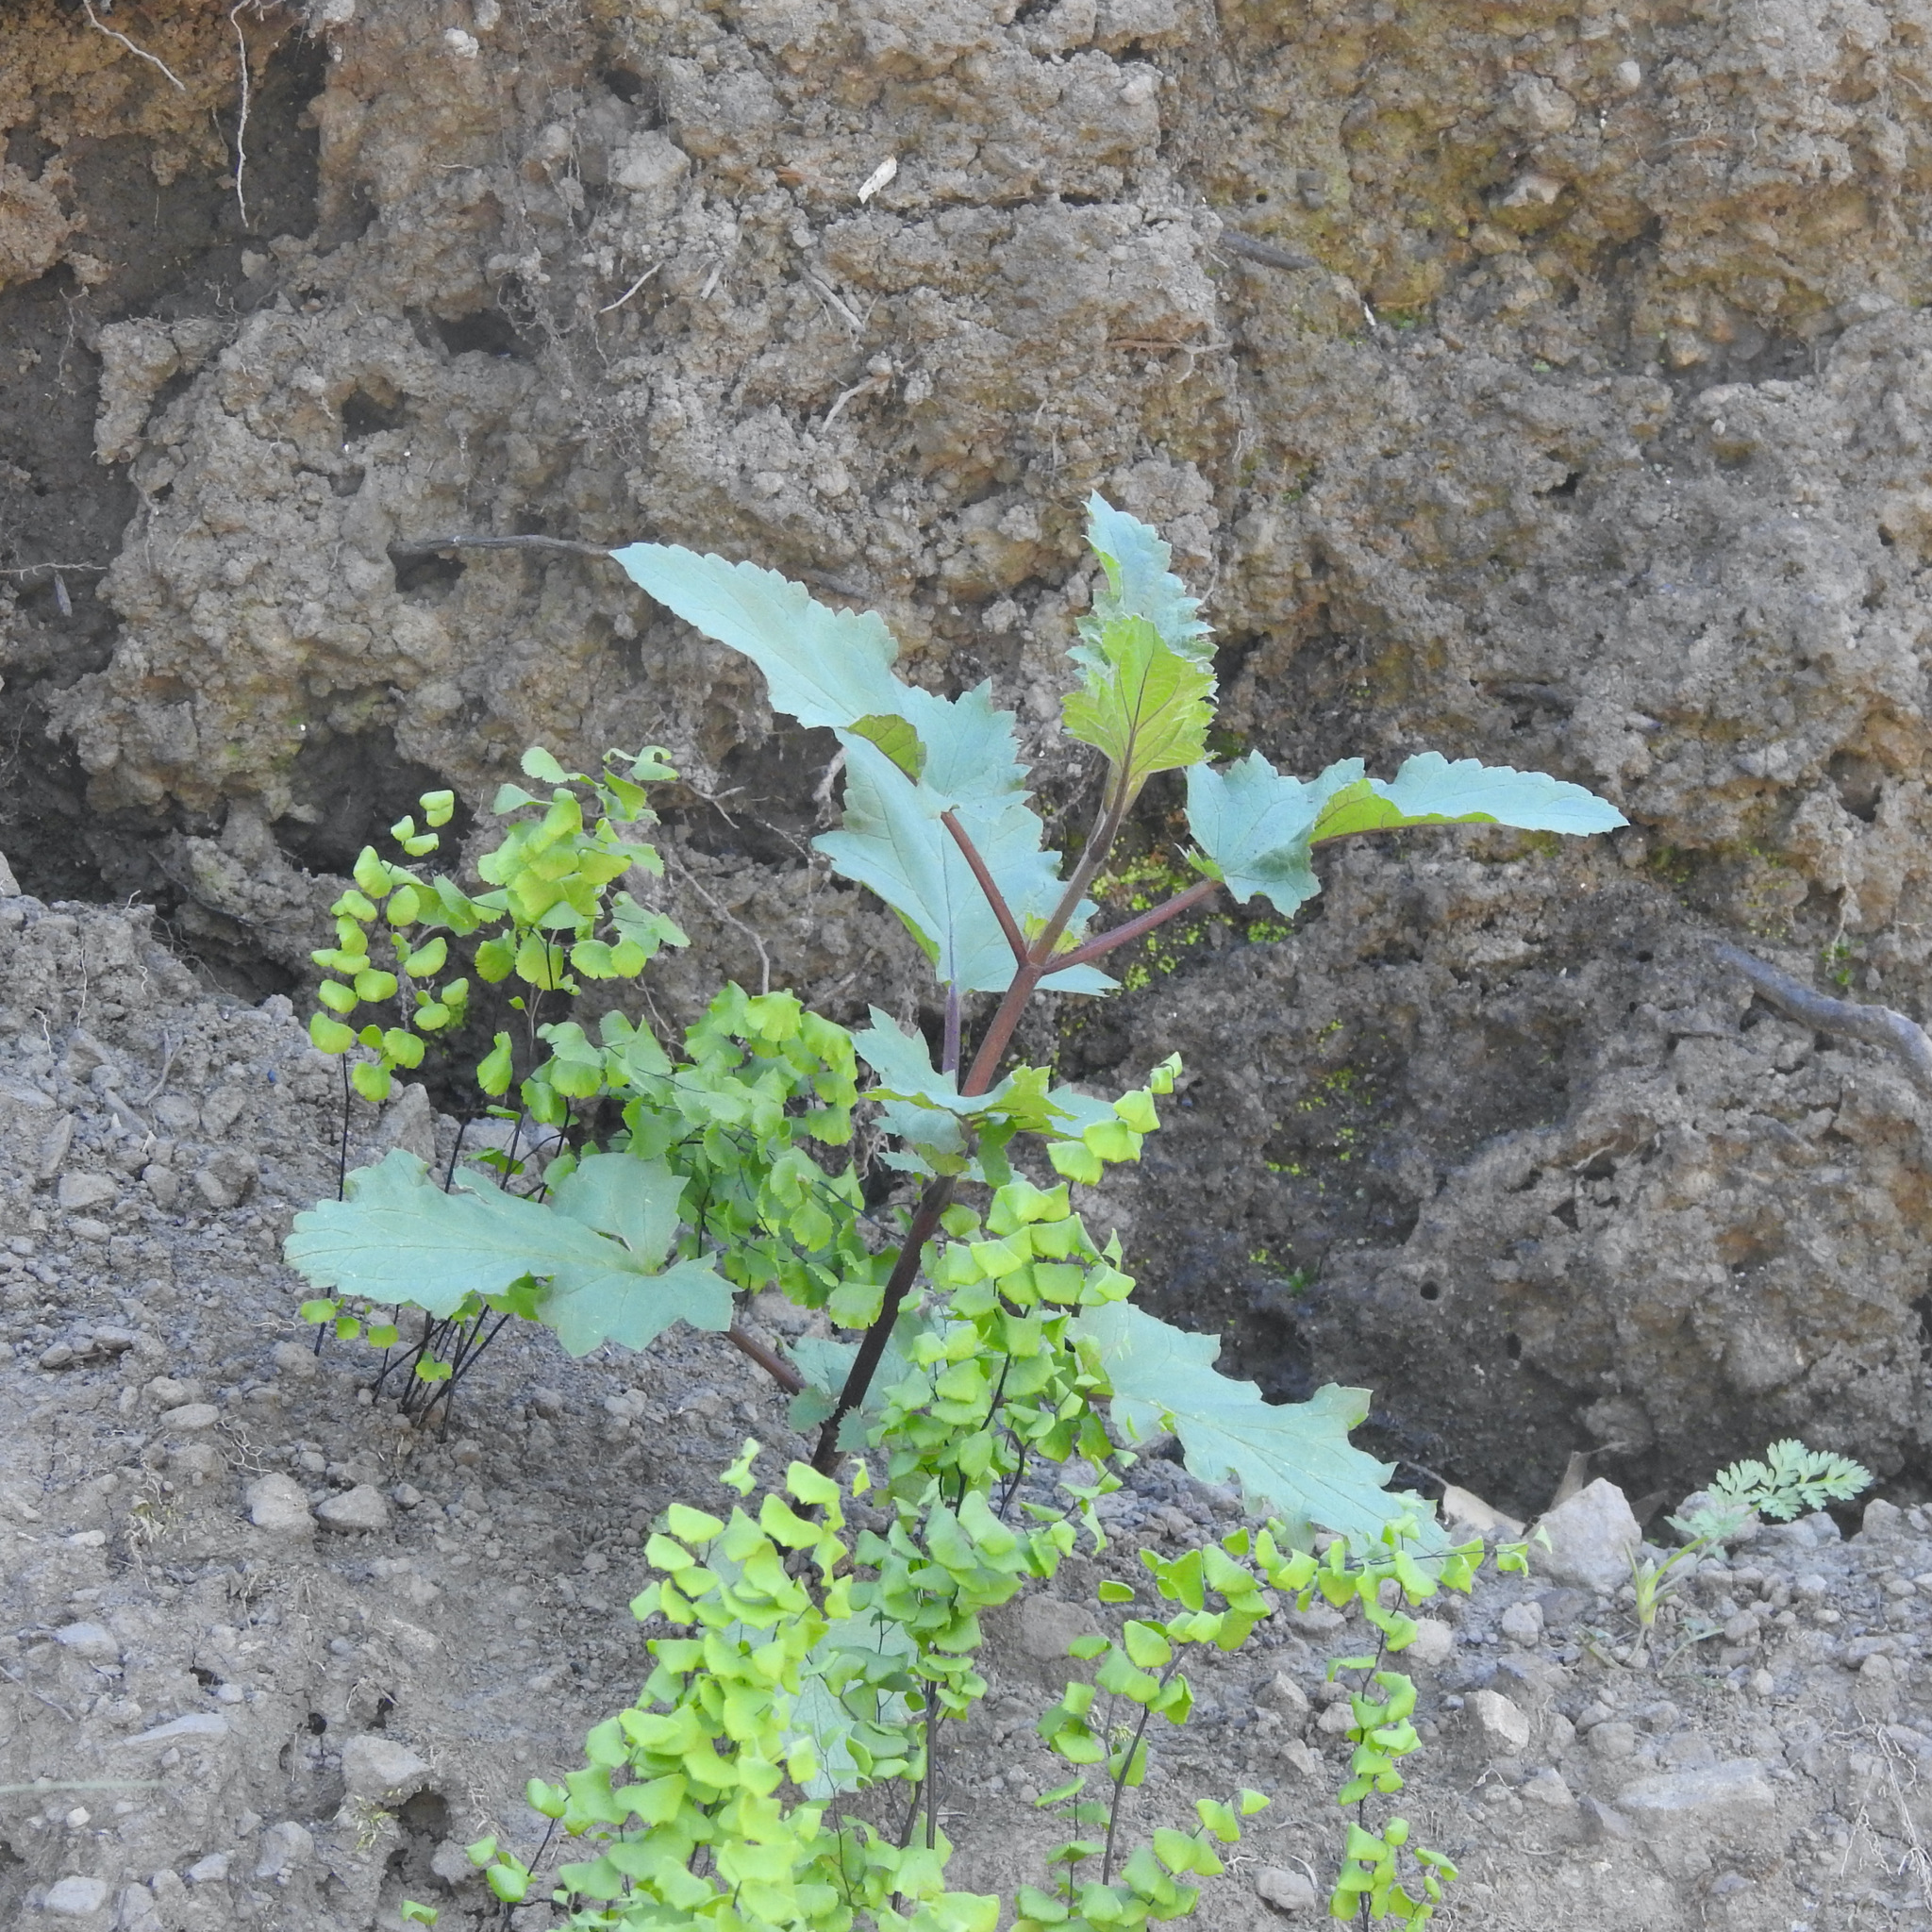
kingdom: Plantae
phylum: Tracheophyta
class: Magnoliopsida
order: Lamiales
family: Scrophulariaceae
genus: Scrophularia
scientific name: Scrophularia californica
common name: California figwort
